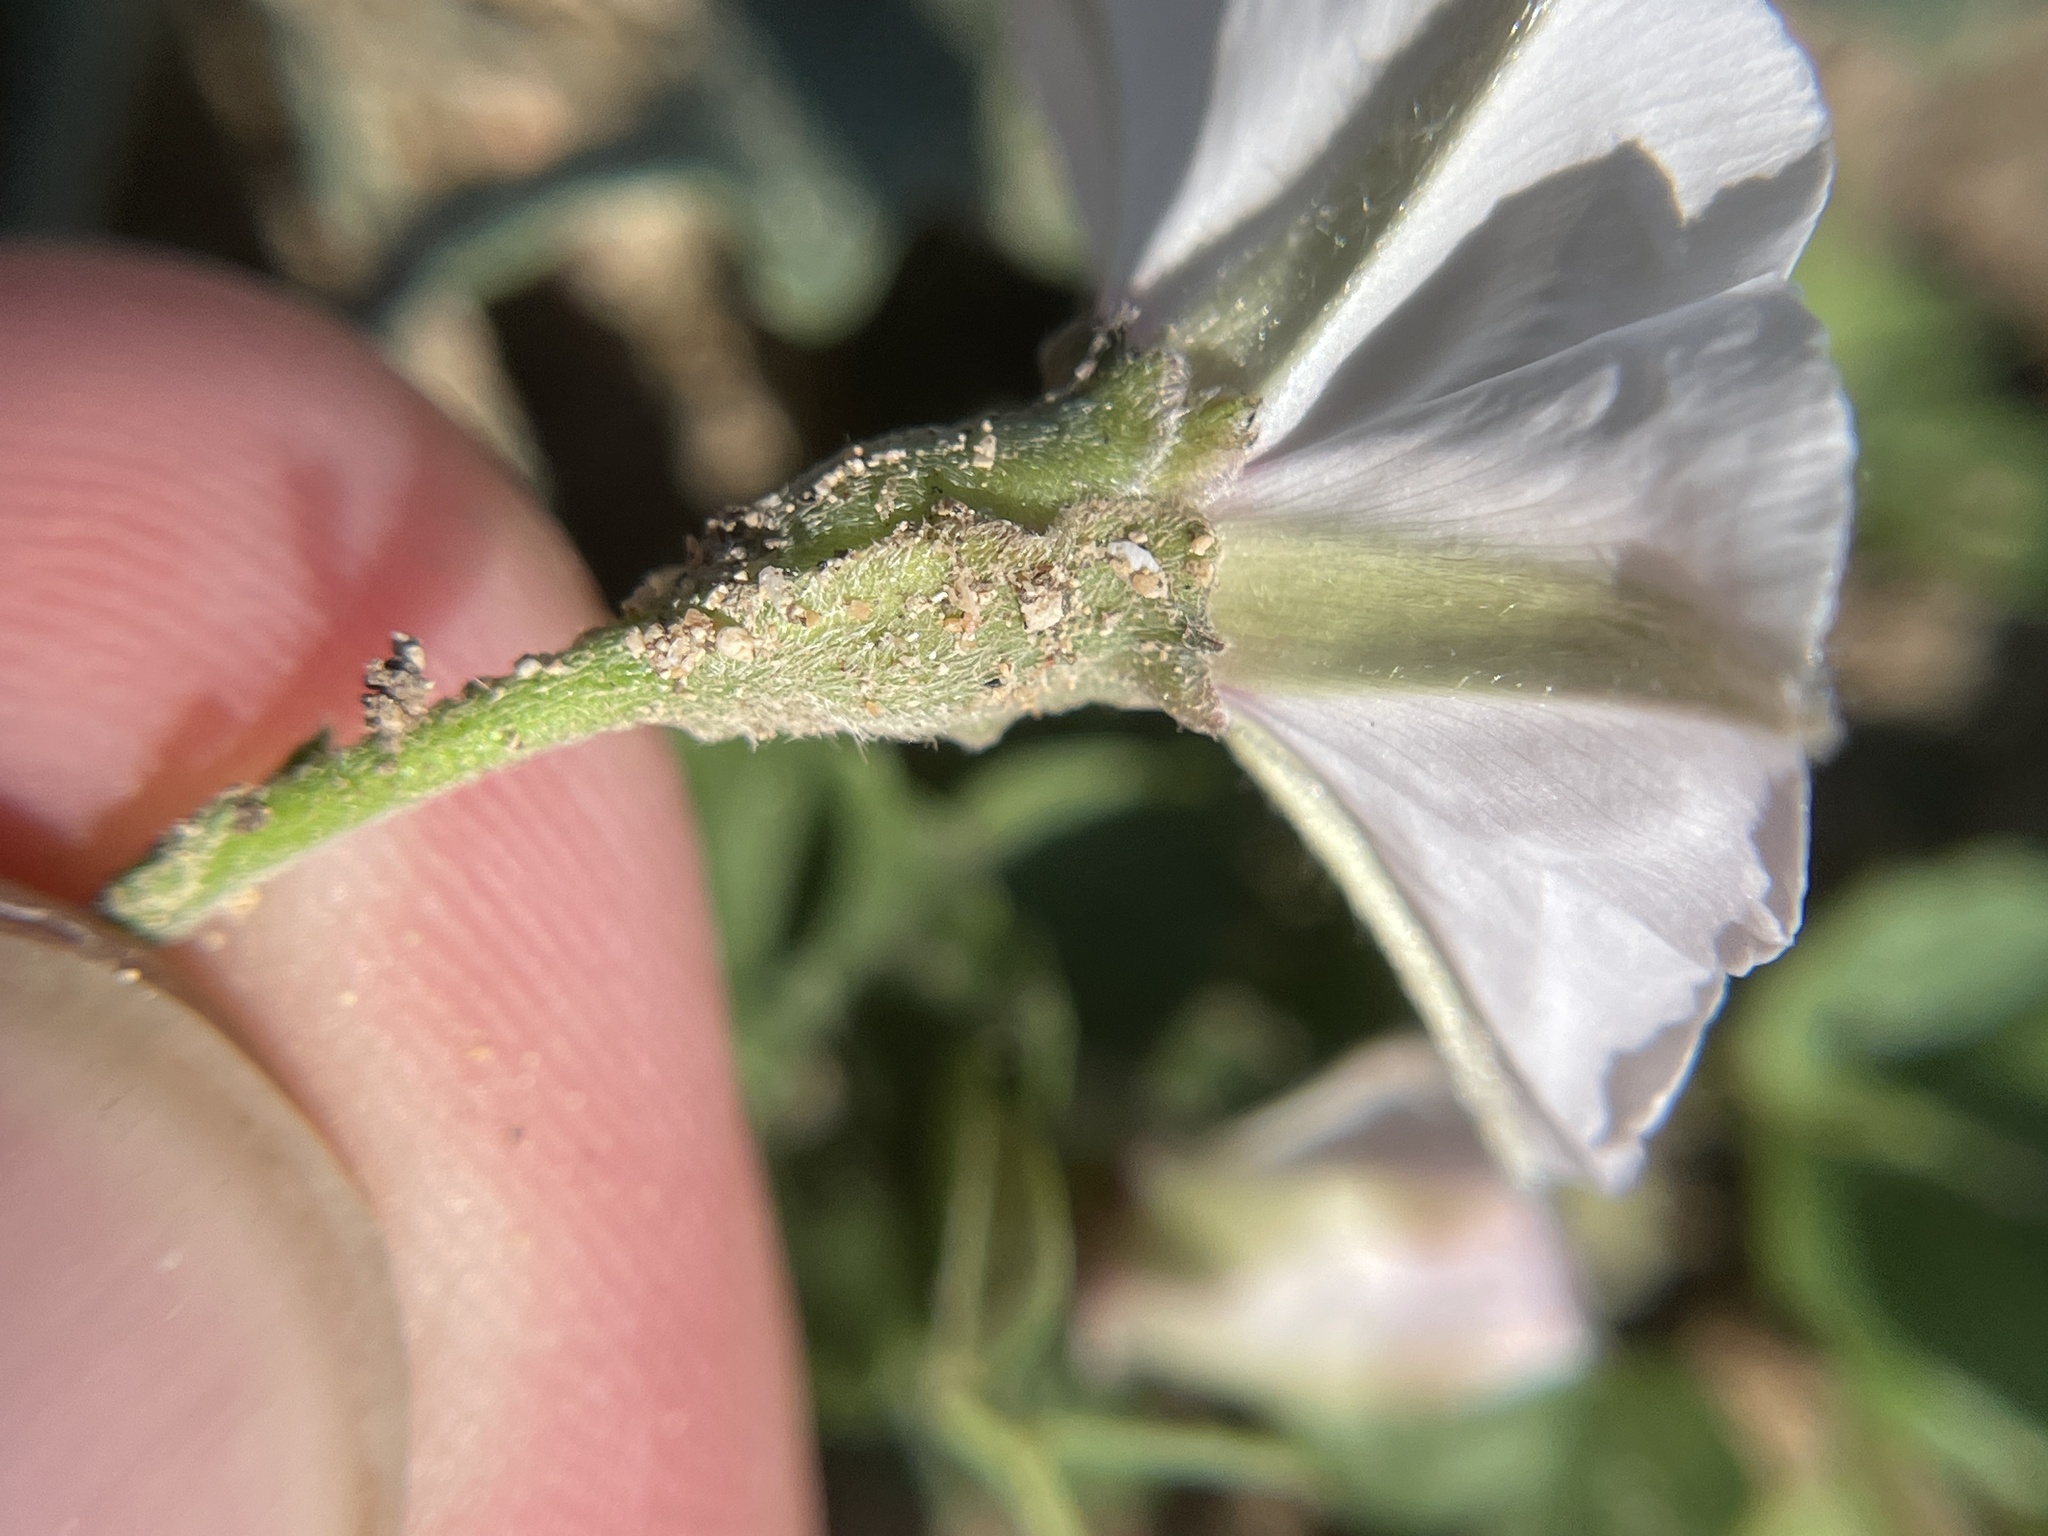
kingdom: Plantae
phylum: Tracheophyta
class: Magnoliopsida
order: Solanales
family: Convolvulaceae
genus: Convolvulus
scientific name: Convolvulus equitans
